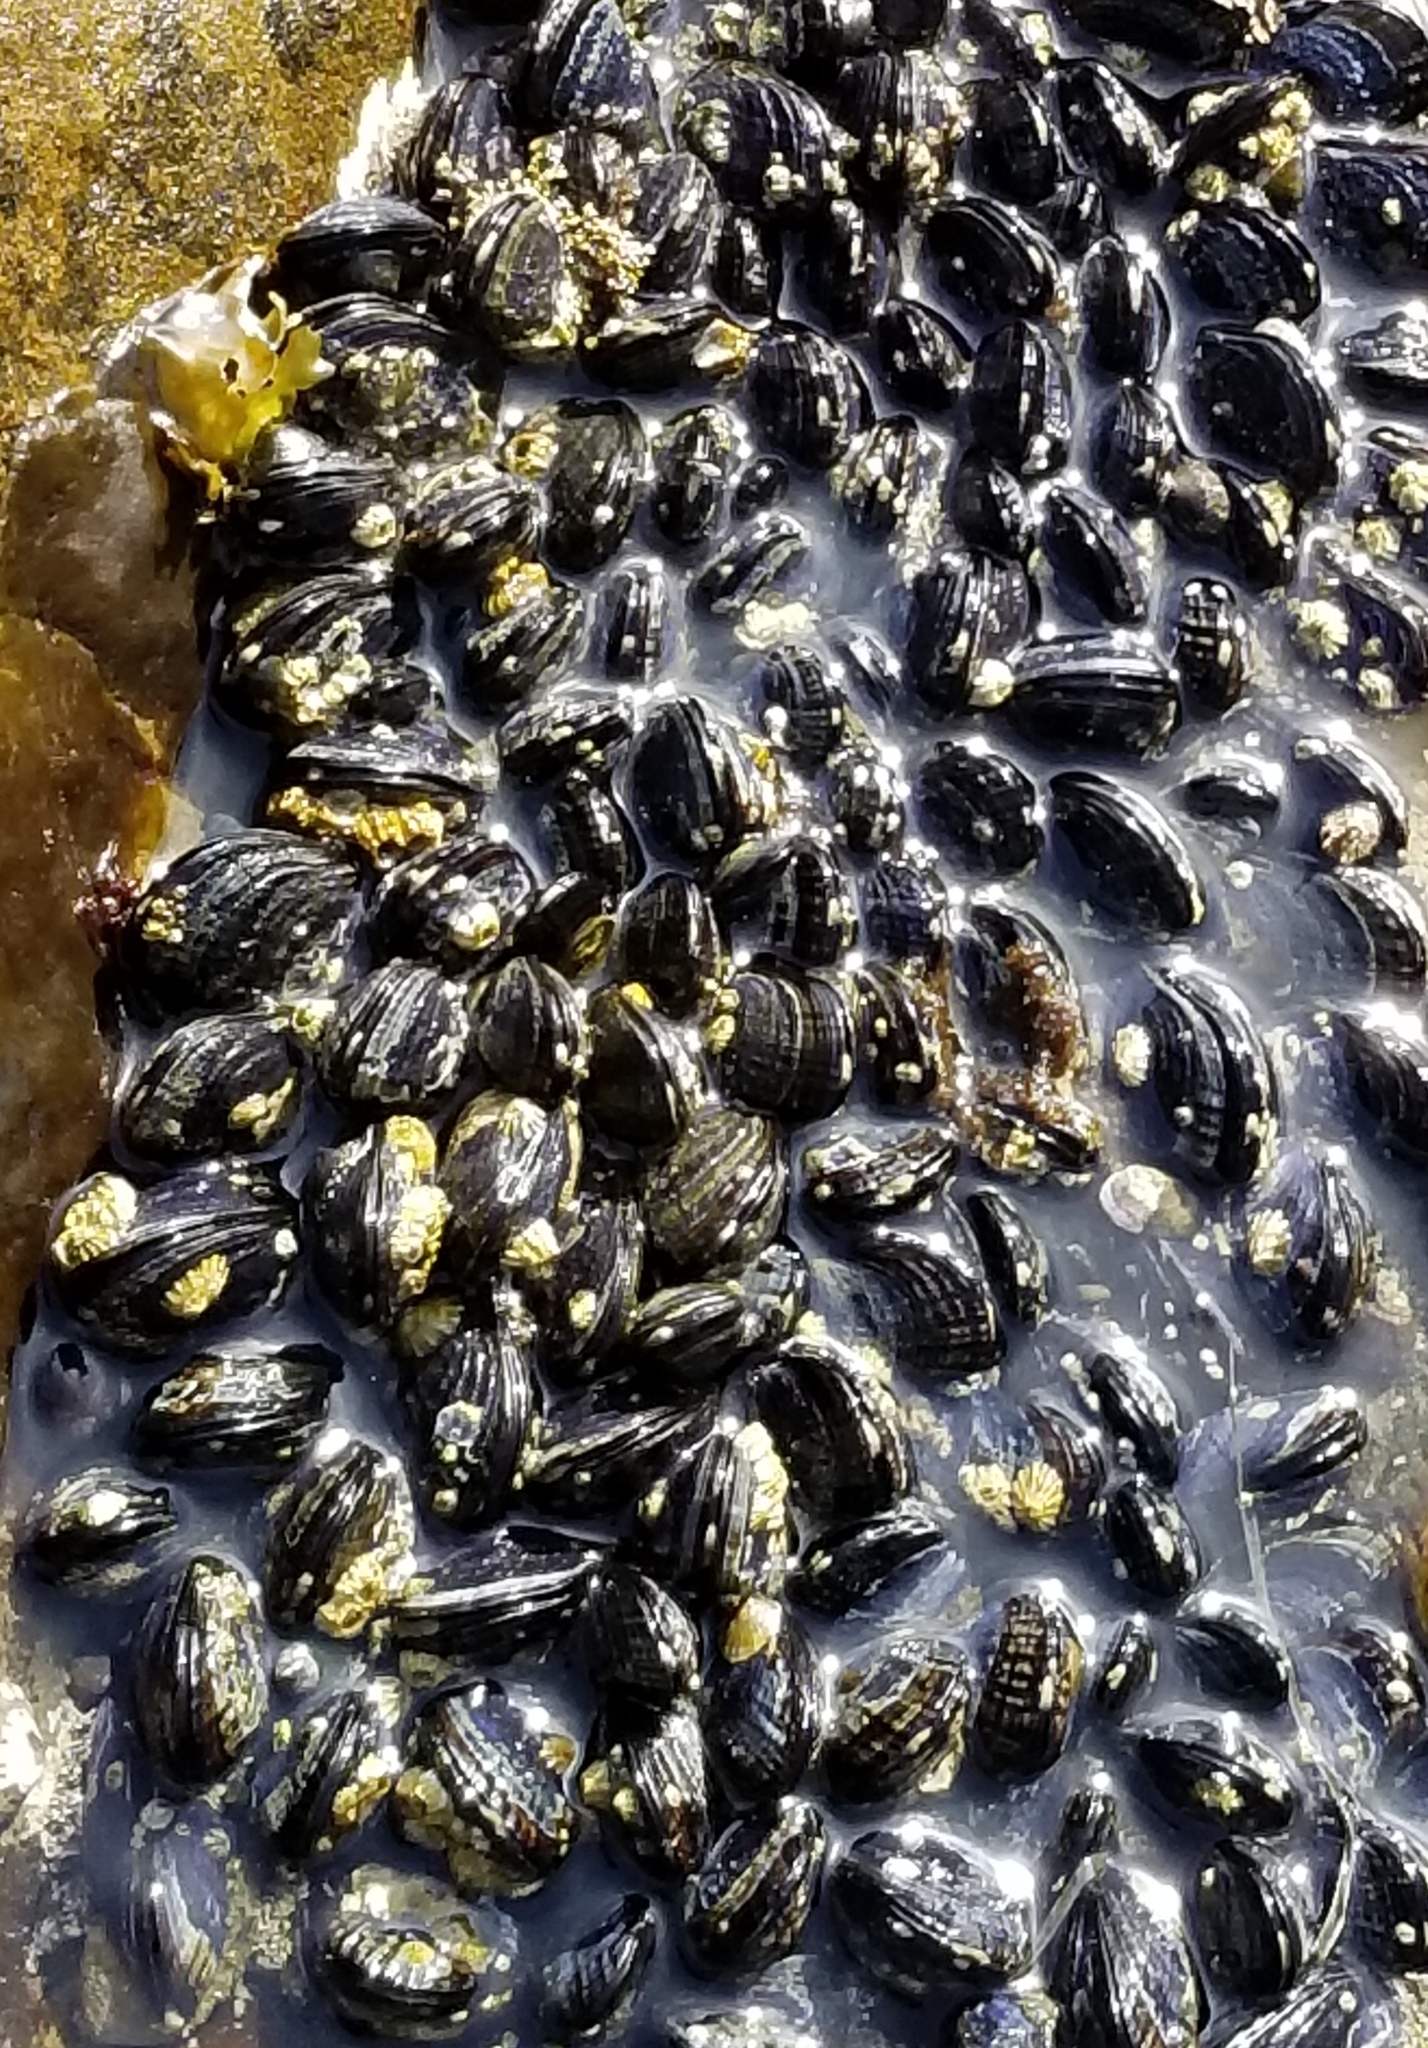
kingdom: Animalia
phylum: Mollusca
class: Bivalvia
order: Mytilida
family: Mytilidae
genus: Mytilus
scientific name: Mytilus californianus
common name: California mussel
